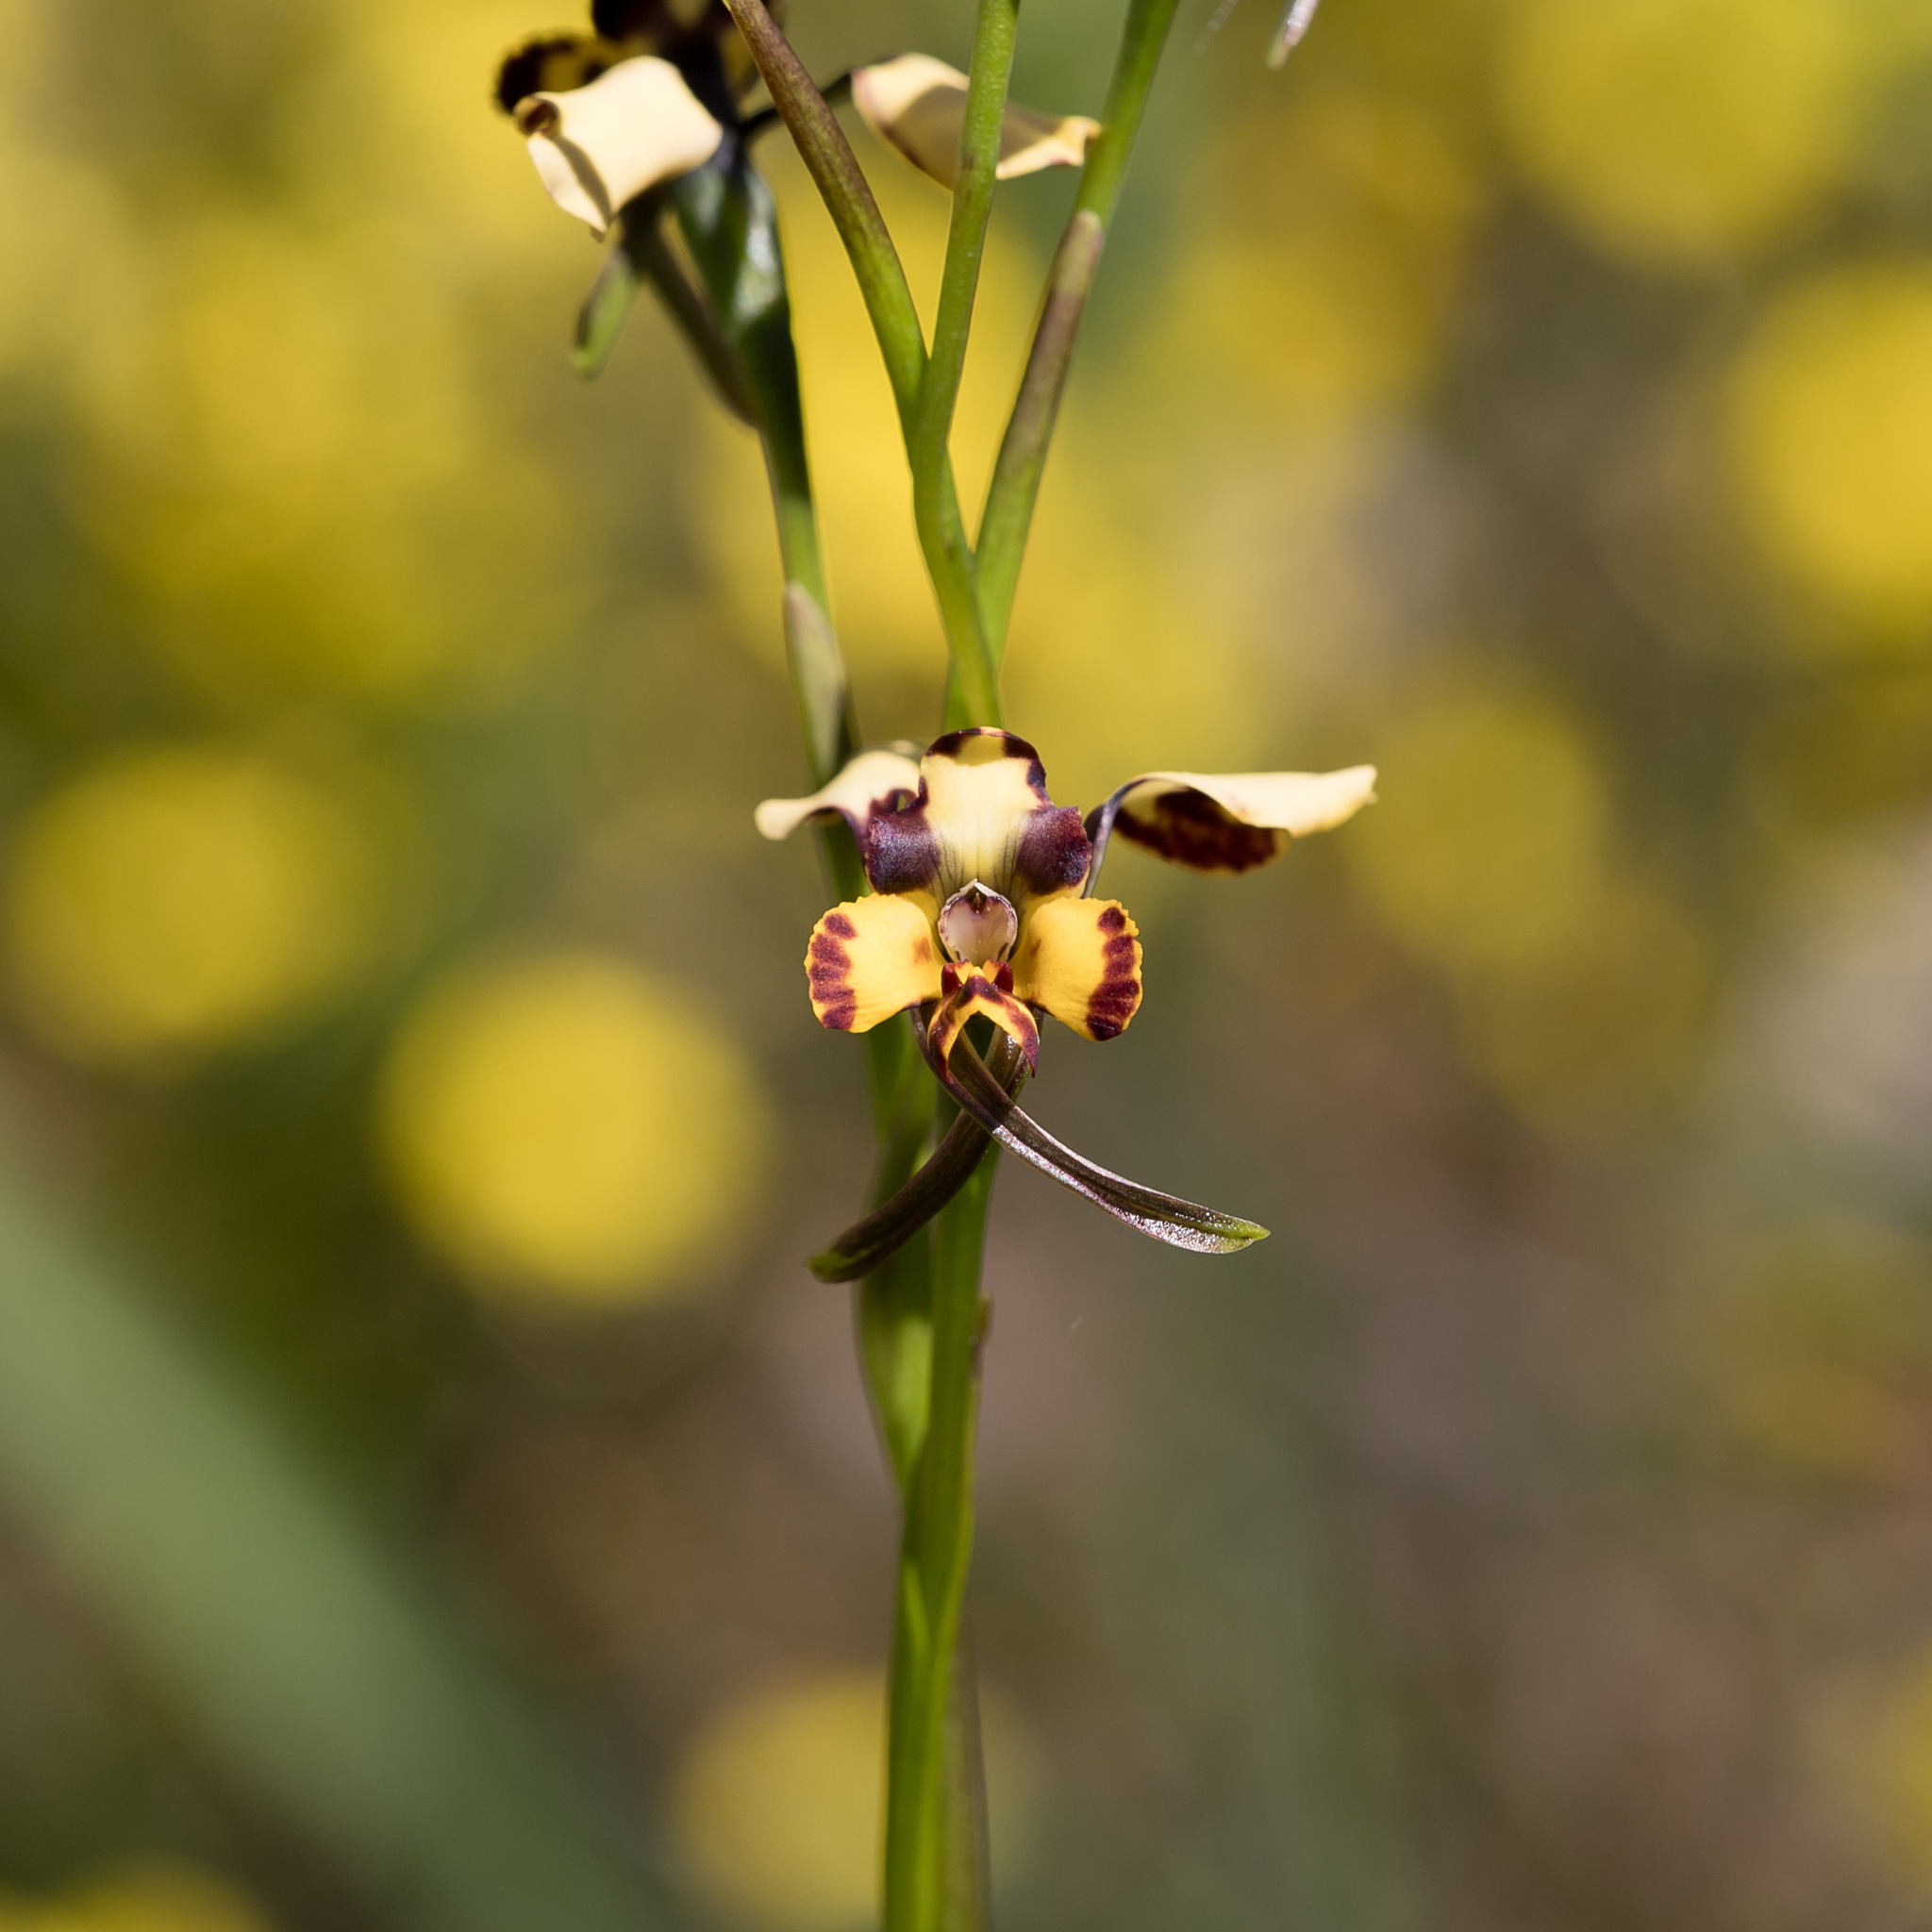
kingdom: Plantae
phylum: Tracheophyta
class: Liliopsida
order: Asparagales
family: Orchidaceae
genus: Diuris
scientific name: Diuris pardina
